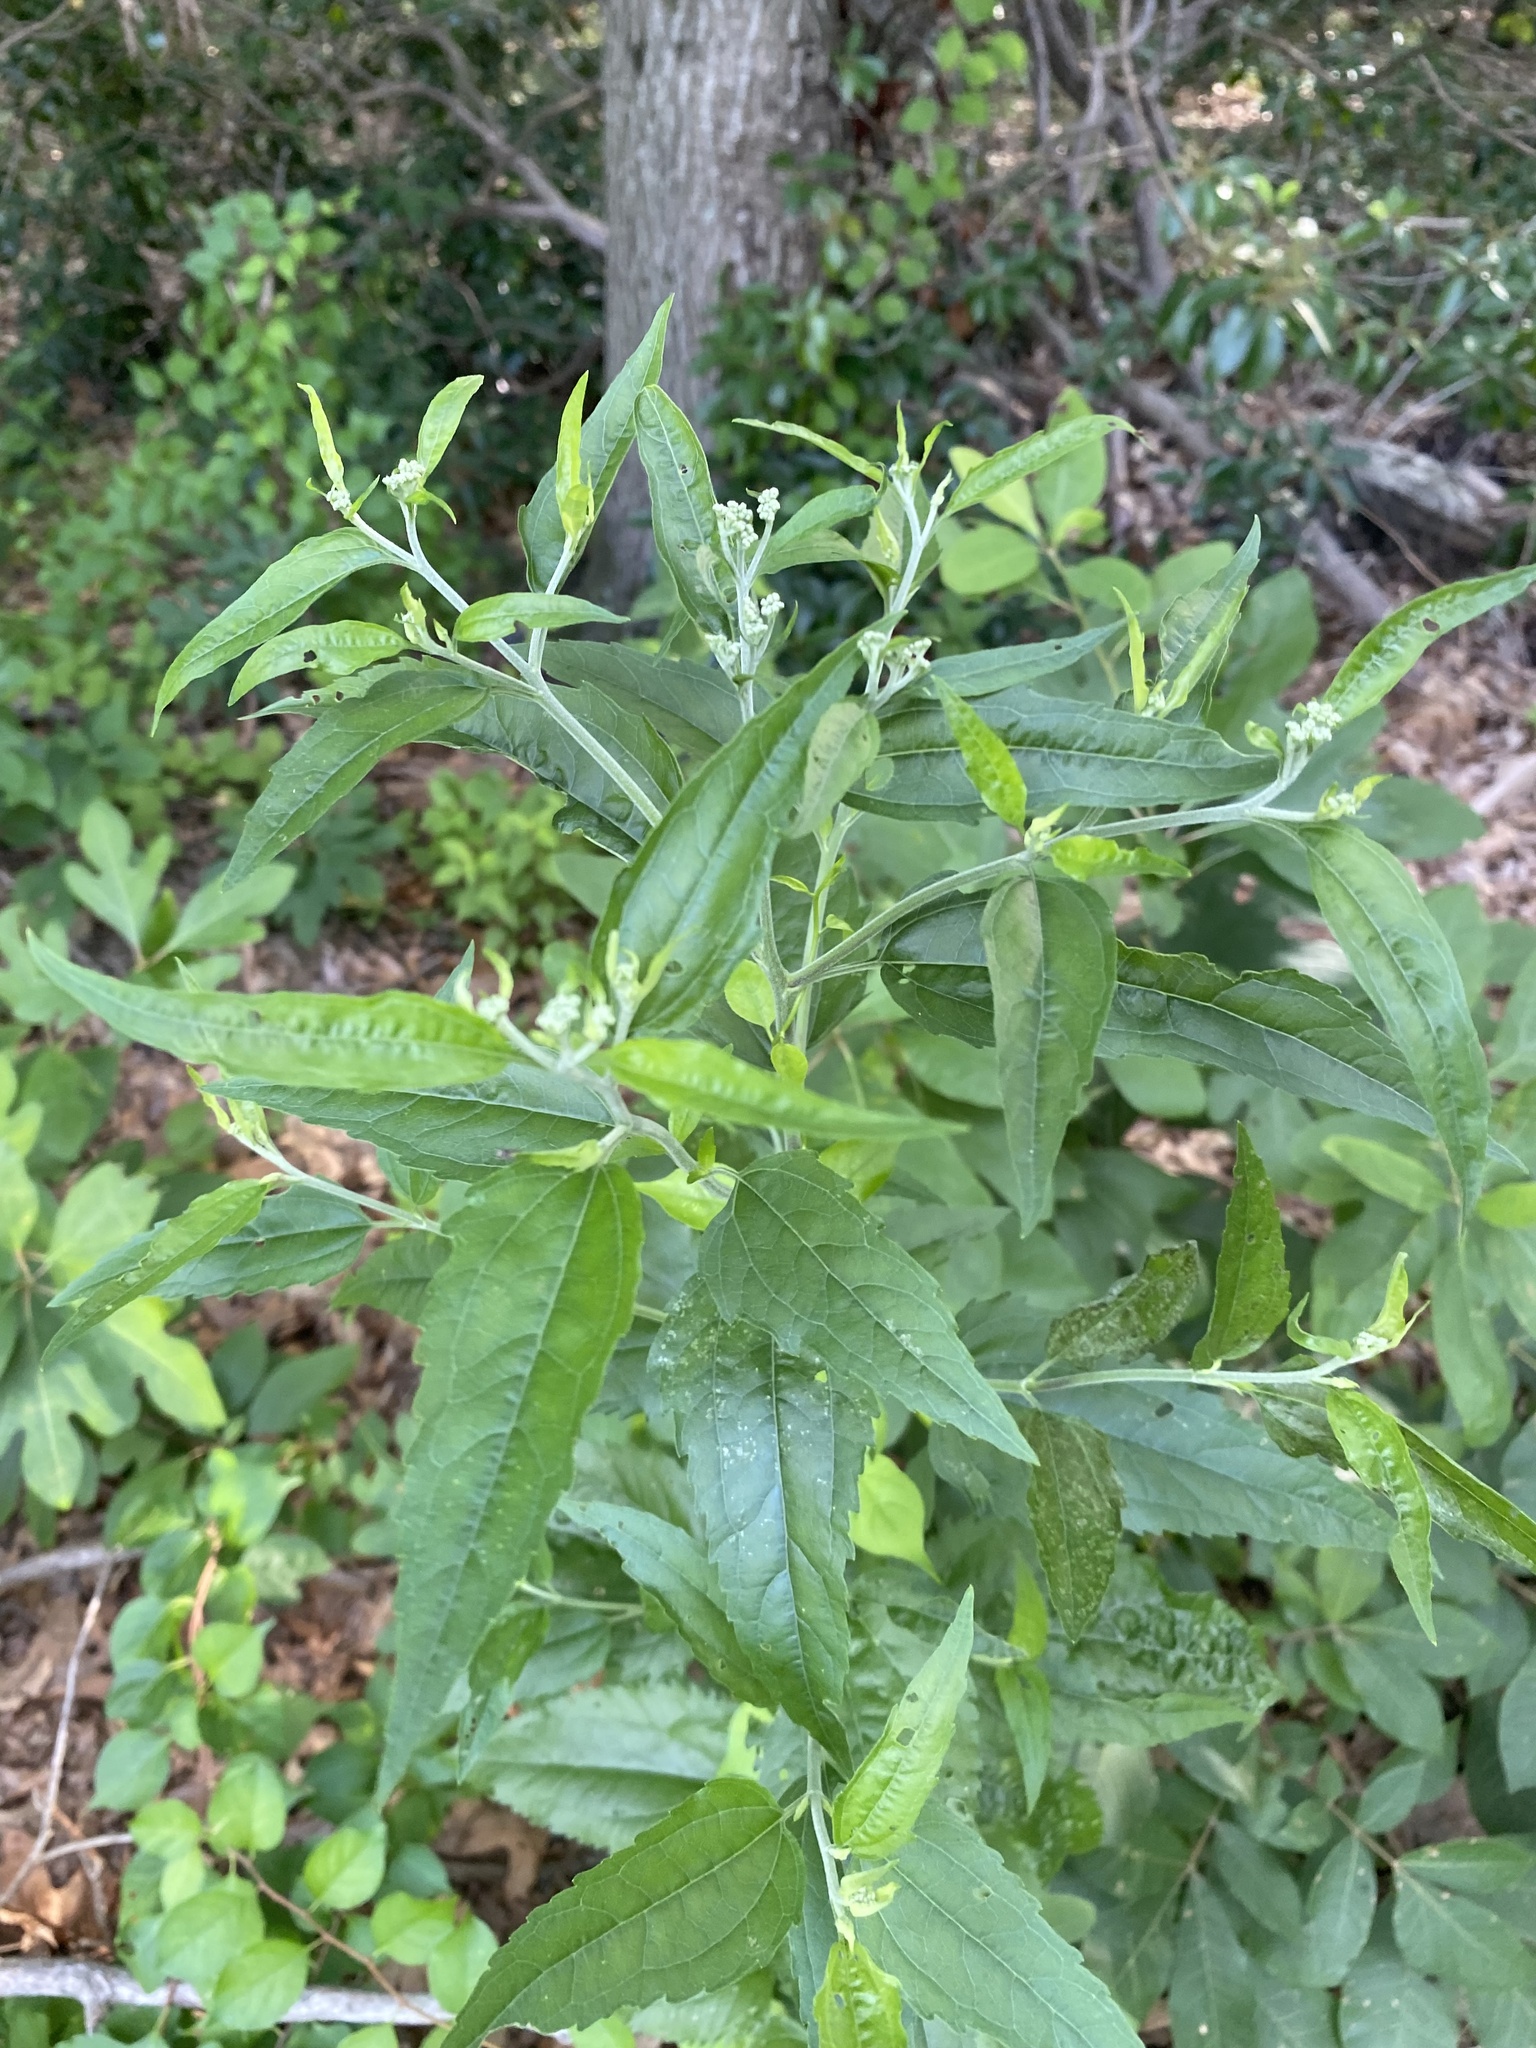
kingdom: Plantae
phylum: Tracheophyta
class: Magnoliopsida
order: Asterales
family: Asteraceae
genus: Eupatorium
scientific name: Eupatorium serotinum
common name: Late boneset
